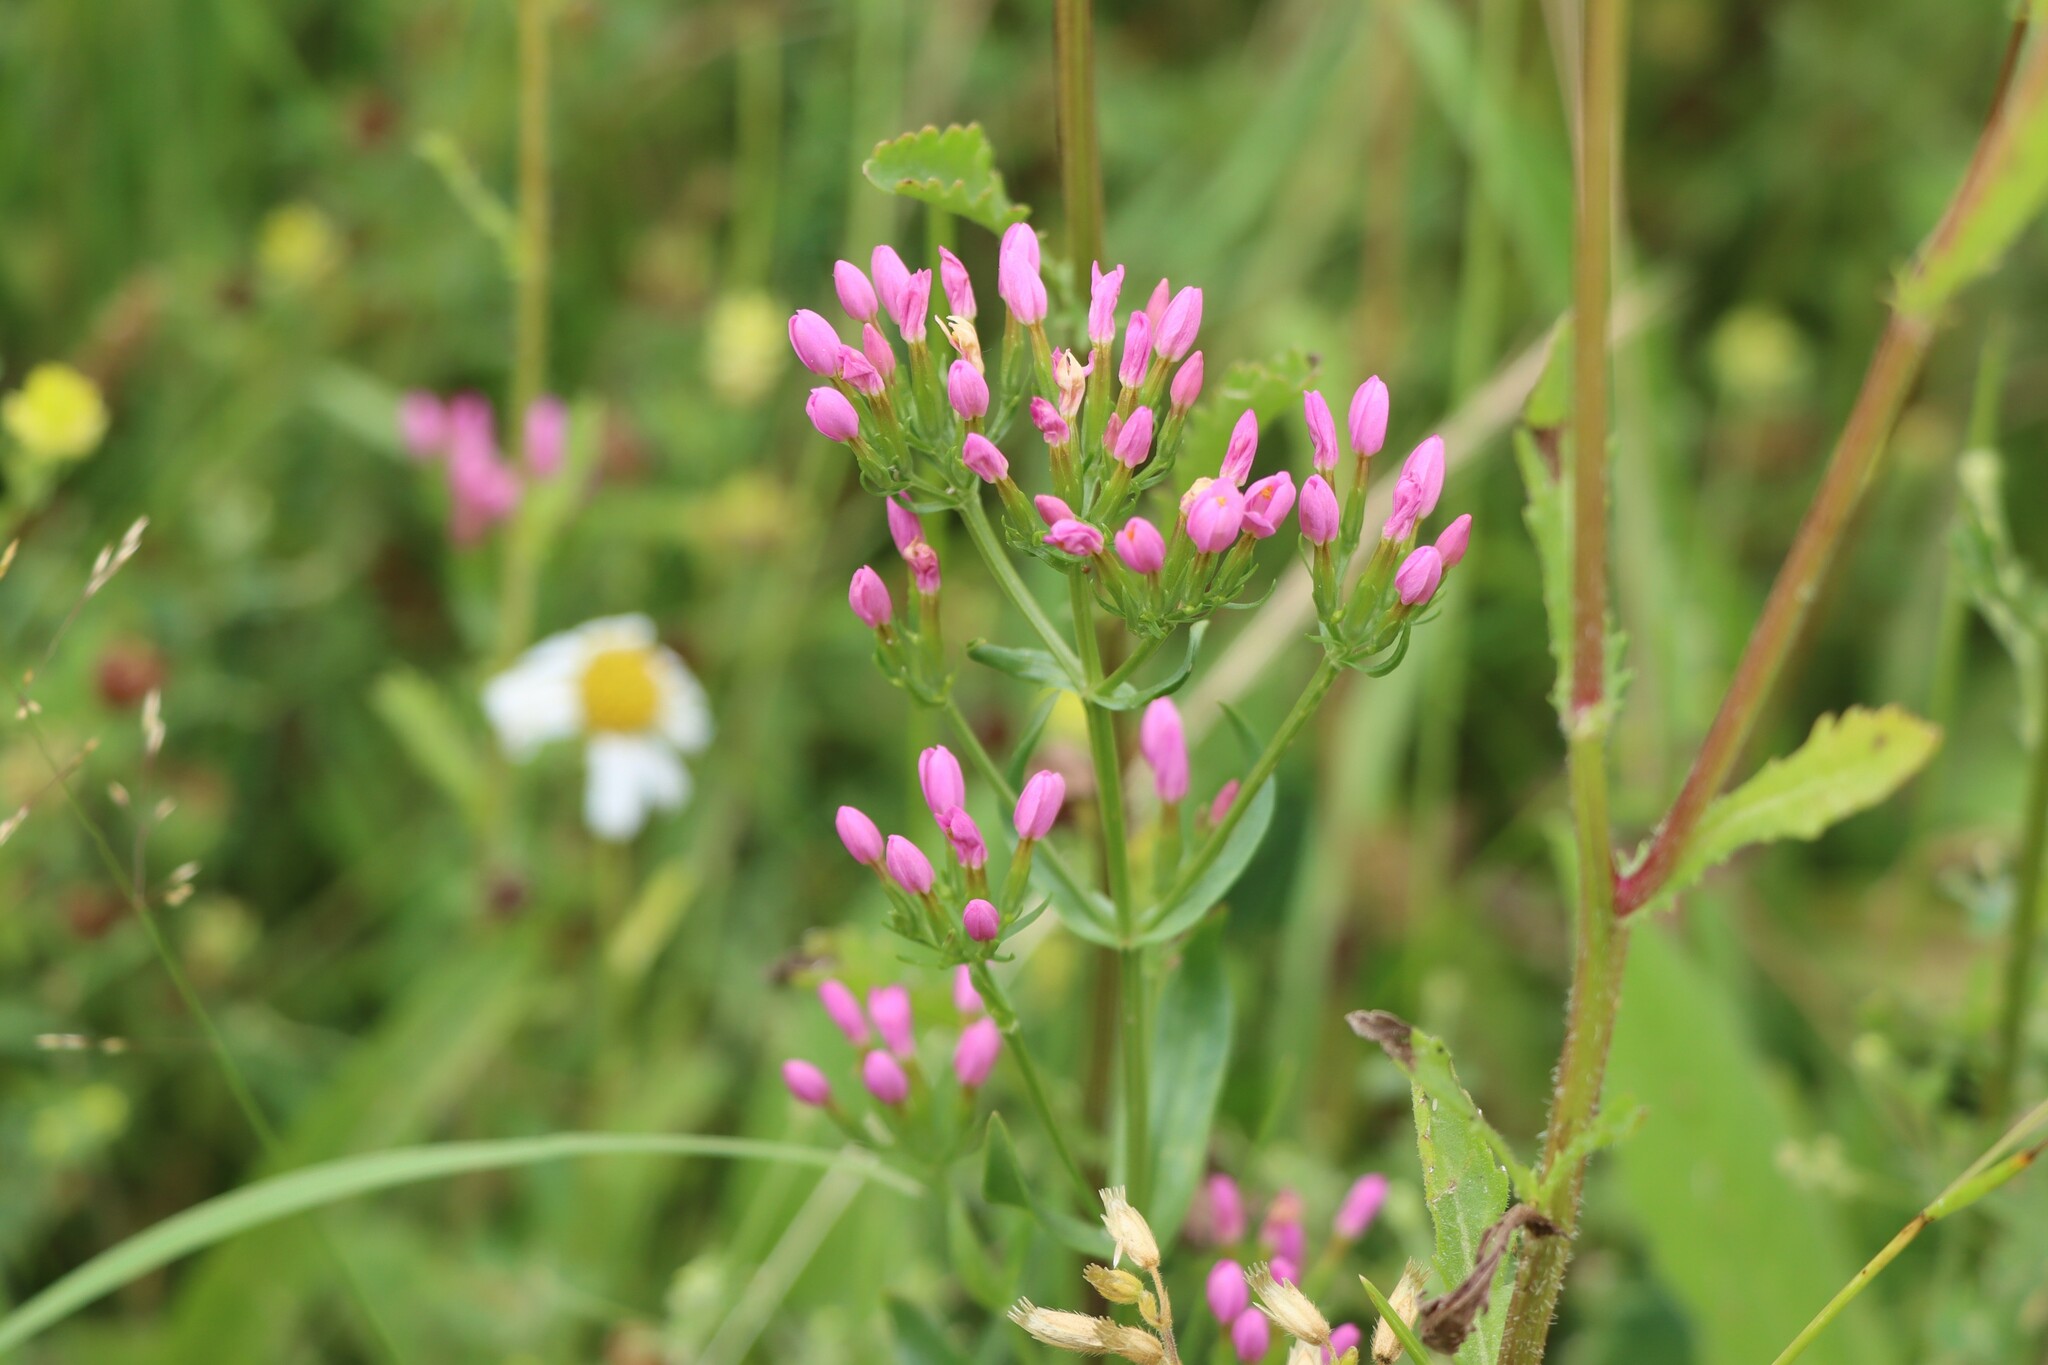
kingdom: Plantae
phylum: Tracheophyta
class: Magnoliopsida
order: Gentianales
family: Gentianaceae
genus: Centaurium
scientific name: Centaurium erythraea
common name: Common centaury
